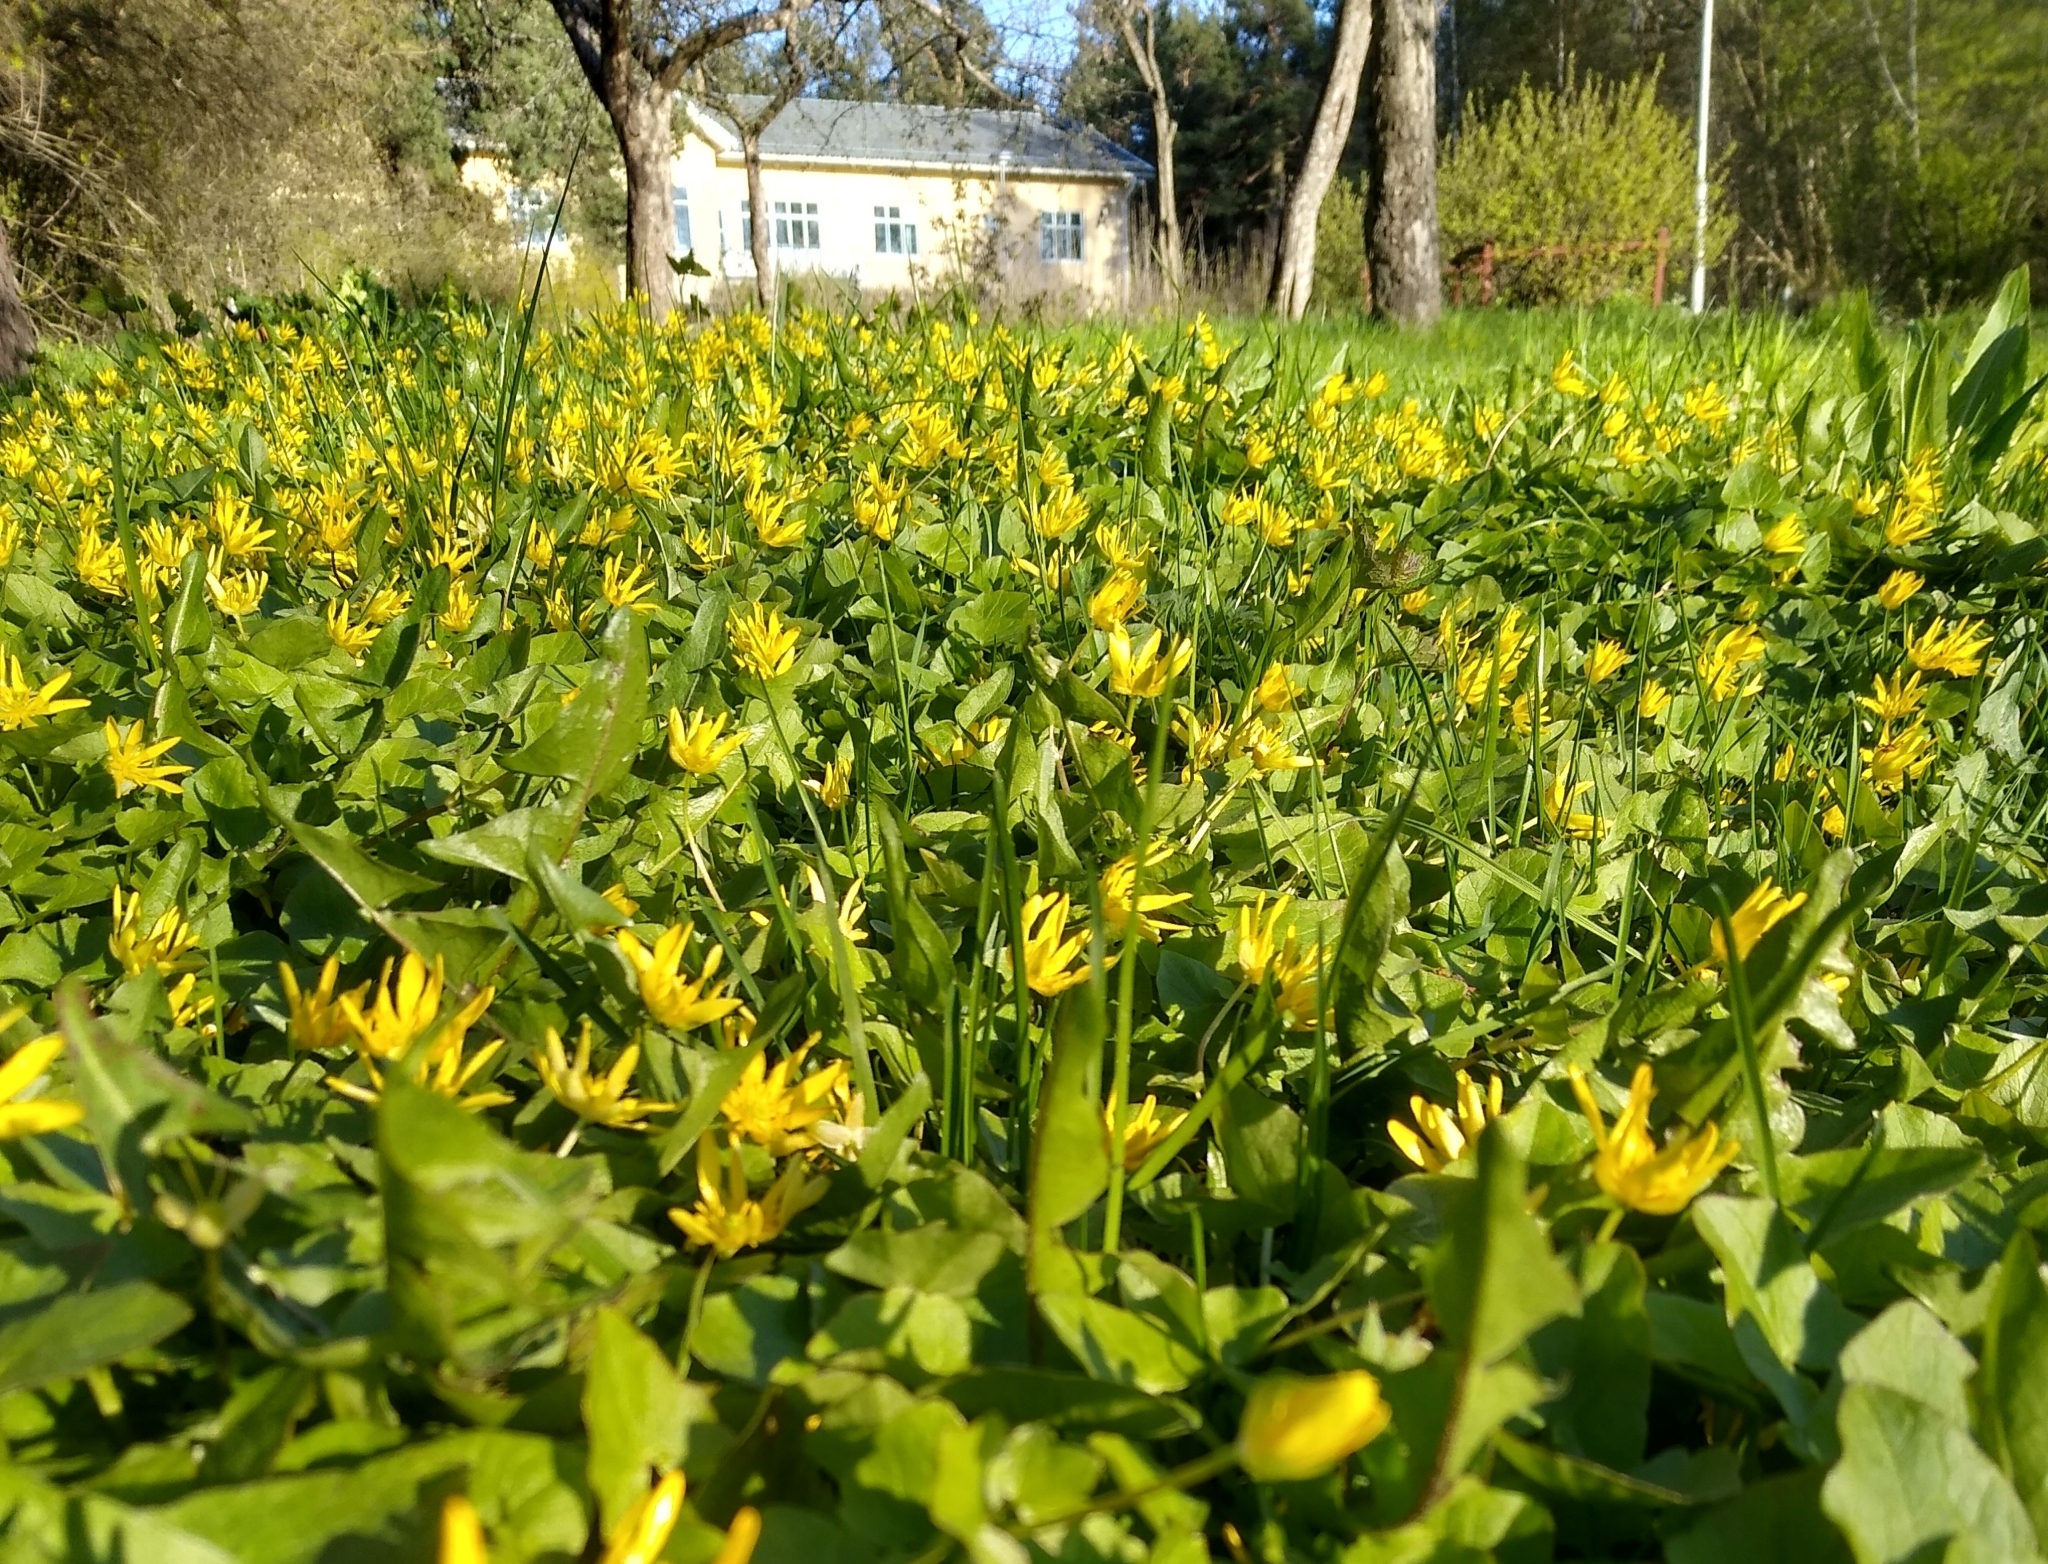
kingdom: Plantae
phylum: Tracheophyta
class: Magnoliopsida
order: Ranunculales
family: Ranunculaceae
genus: Ficaria
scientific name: Ficaria verna
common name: Lesser celandine
